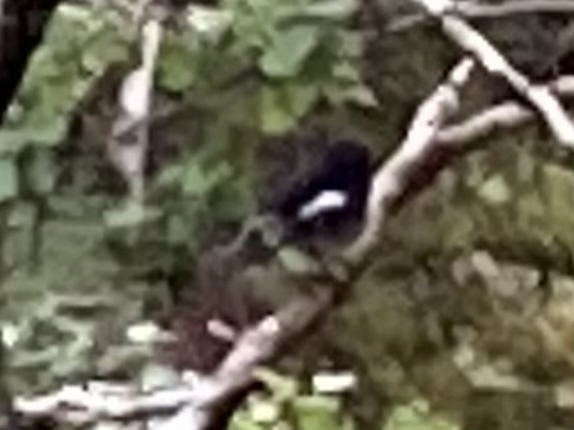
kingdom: Animalia
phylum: Chordata
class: Aves
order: Passeriformes
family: Petroicidae
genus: Petroica
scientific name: Petroica macrocephala
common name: Tomtit
